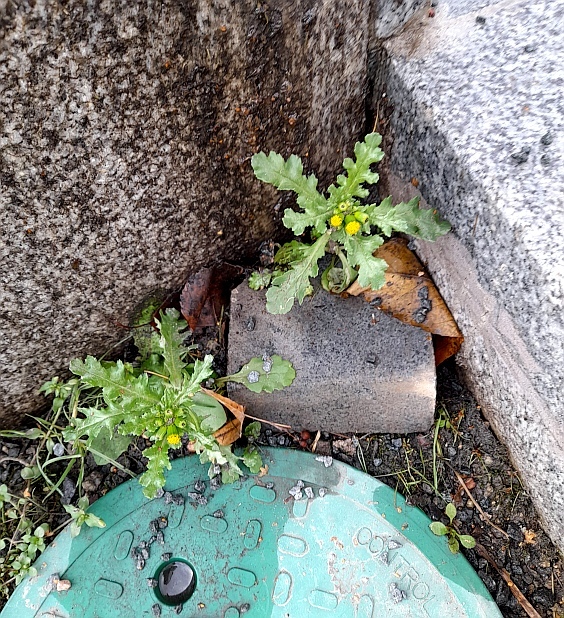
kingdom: Plantae
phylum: Tracheophyta
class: Magnoliopsida
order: Asterales
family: Asteraceae
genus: Senecio
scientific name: Senecio vulgaris
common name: Old-man-in-the-spring
